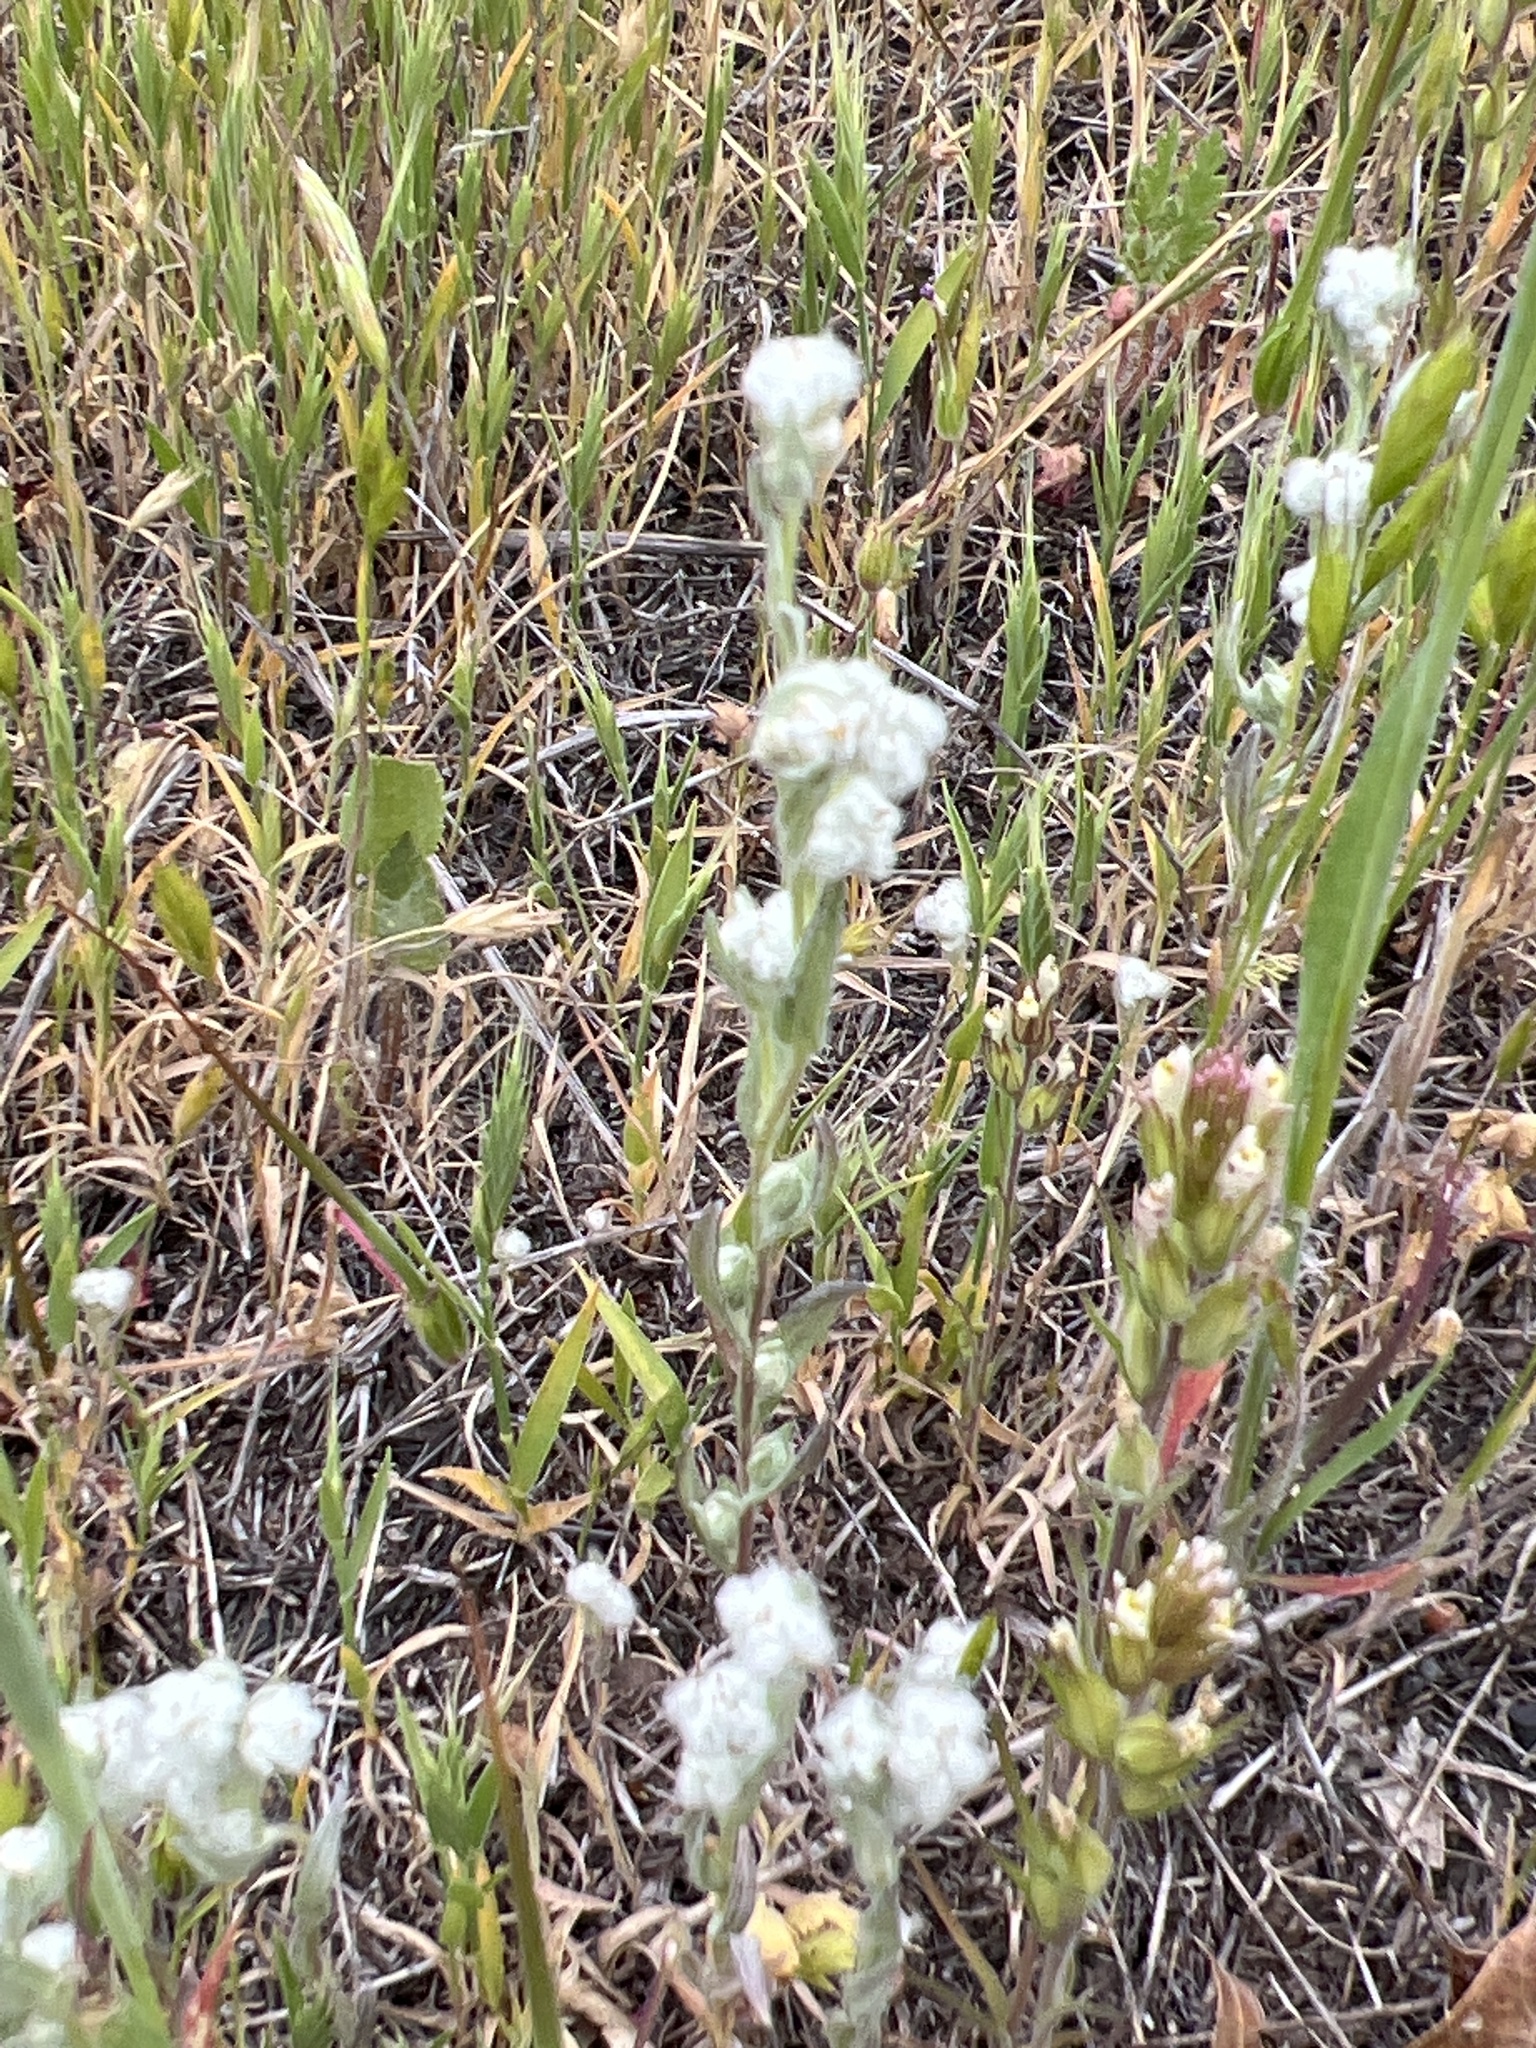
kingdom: Plantae
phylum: Tracheophyta
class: Magnoliopsida
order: Asterales
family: Asteraceae
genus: Bombycilaena
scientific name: Bombycilaena californica
